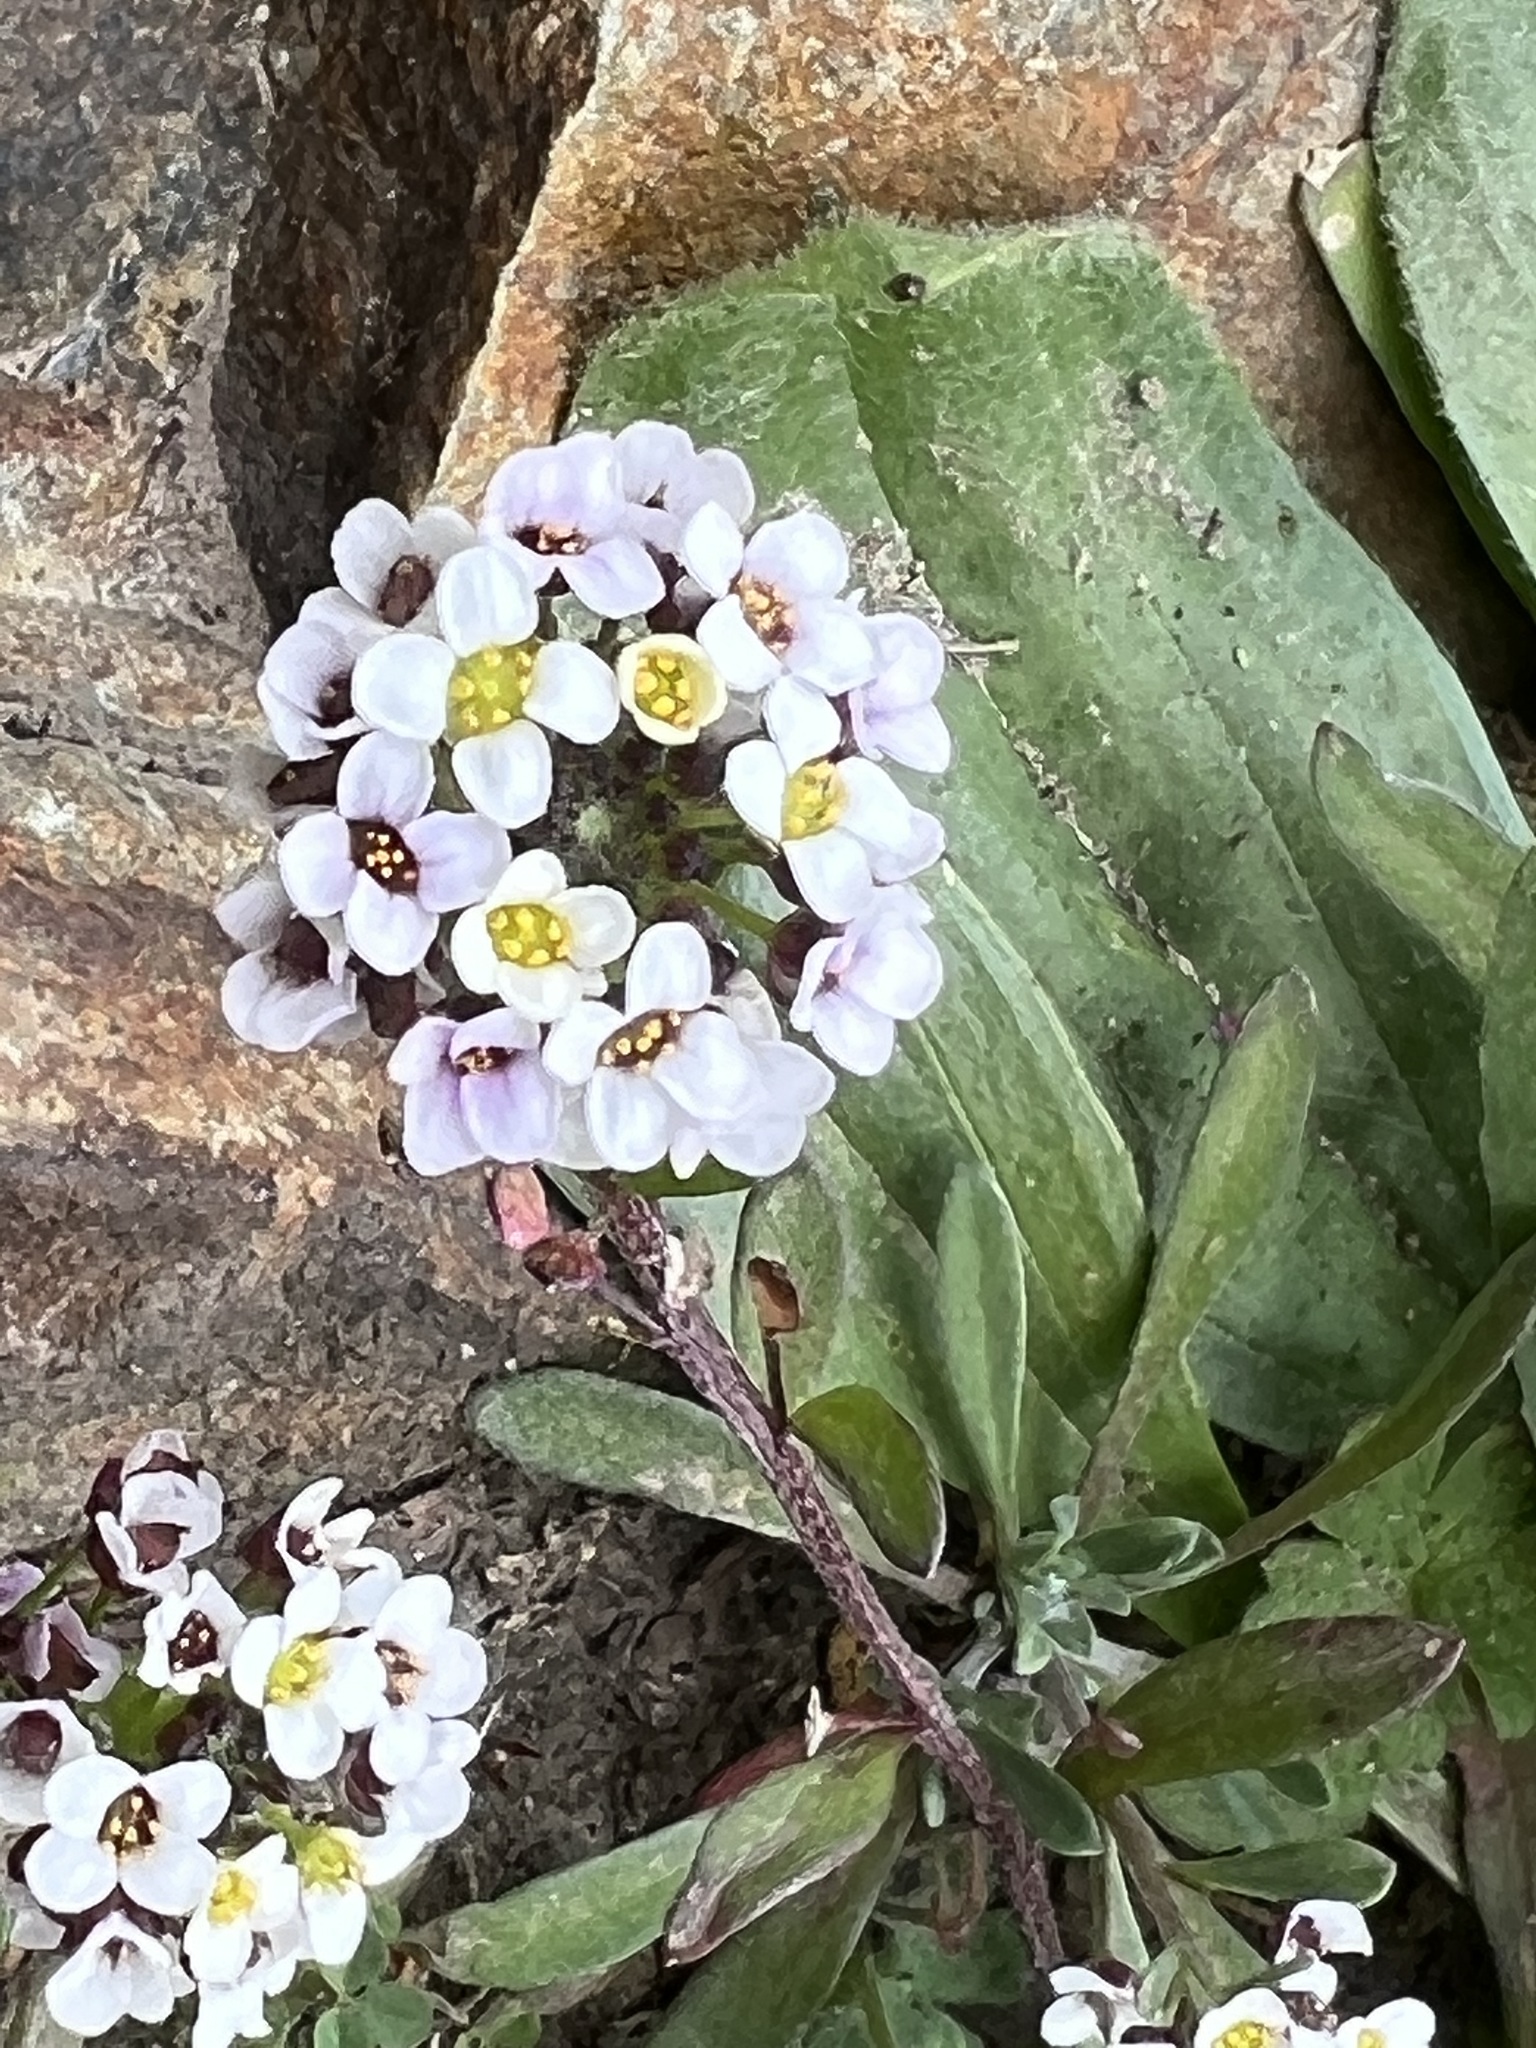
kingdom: Plantae
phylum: Tracheophyta
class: Magnoliopsida
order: Brassicales
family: Brassicaceae
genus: Lobularia
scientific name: Lobularia maritima
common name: Sweet alison
